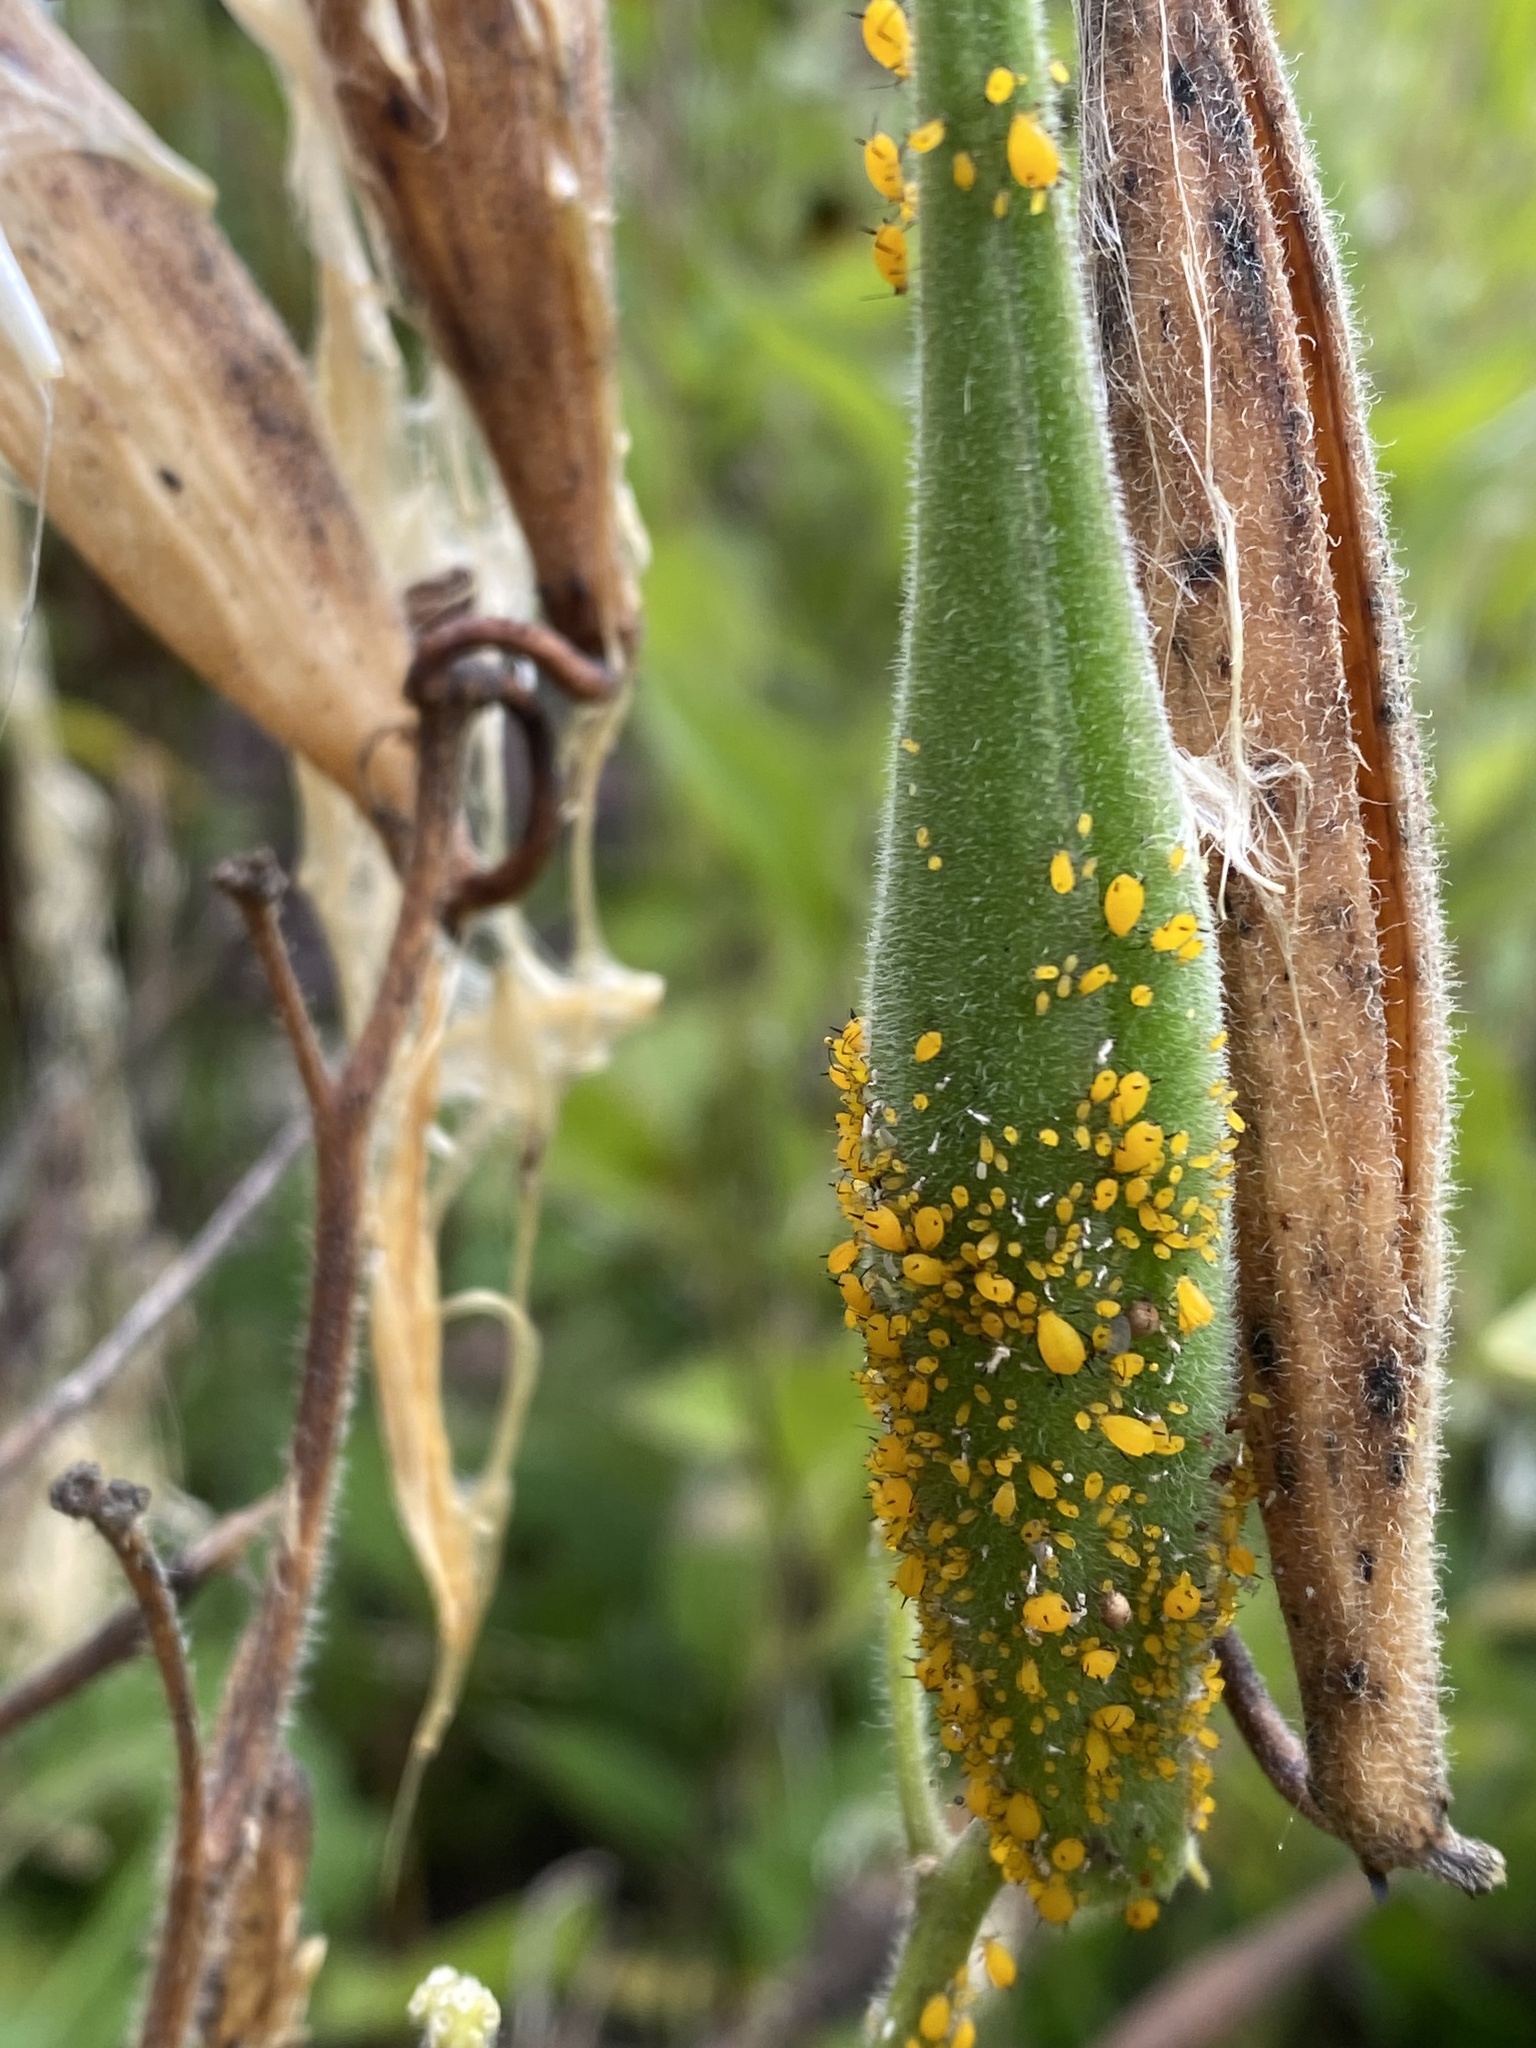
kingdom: Animalia
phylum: Arthropoda
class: Insecta
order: Hemiptera
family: Aphididae
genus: Aphis
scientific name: Aphis nerii
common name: Oleander aphid
